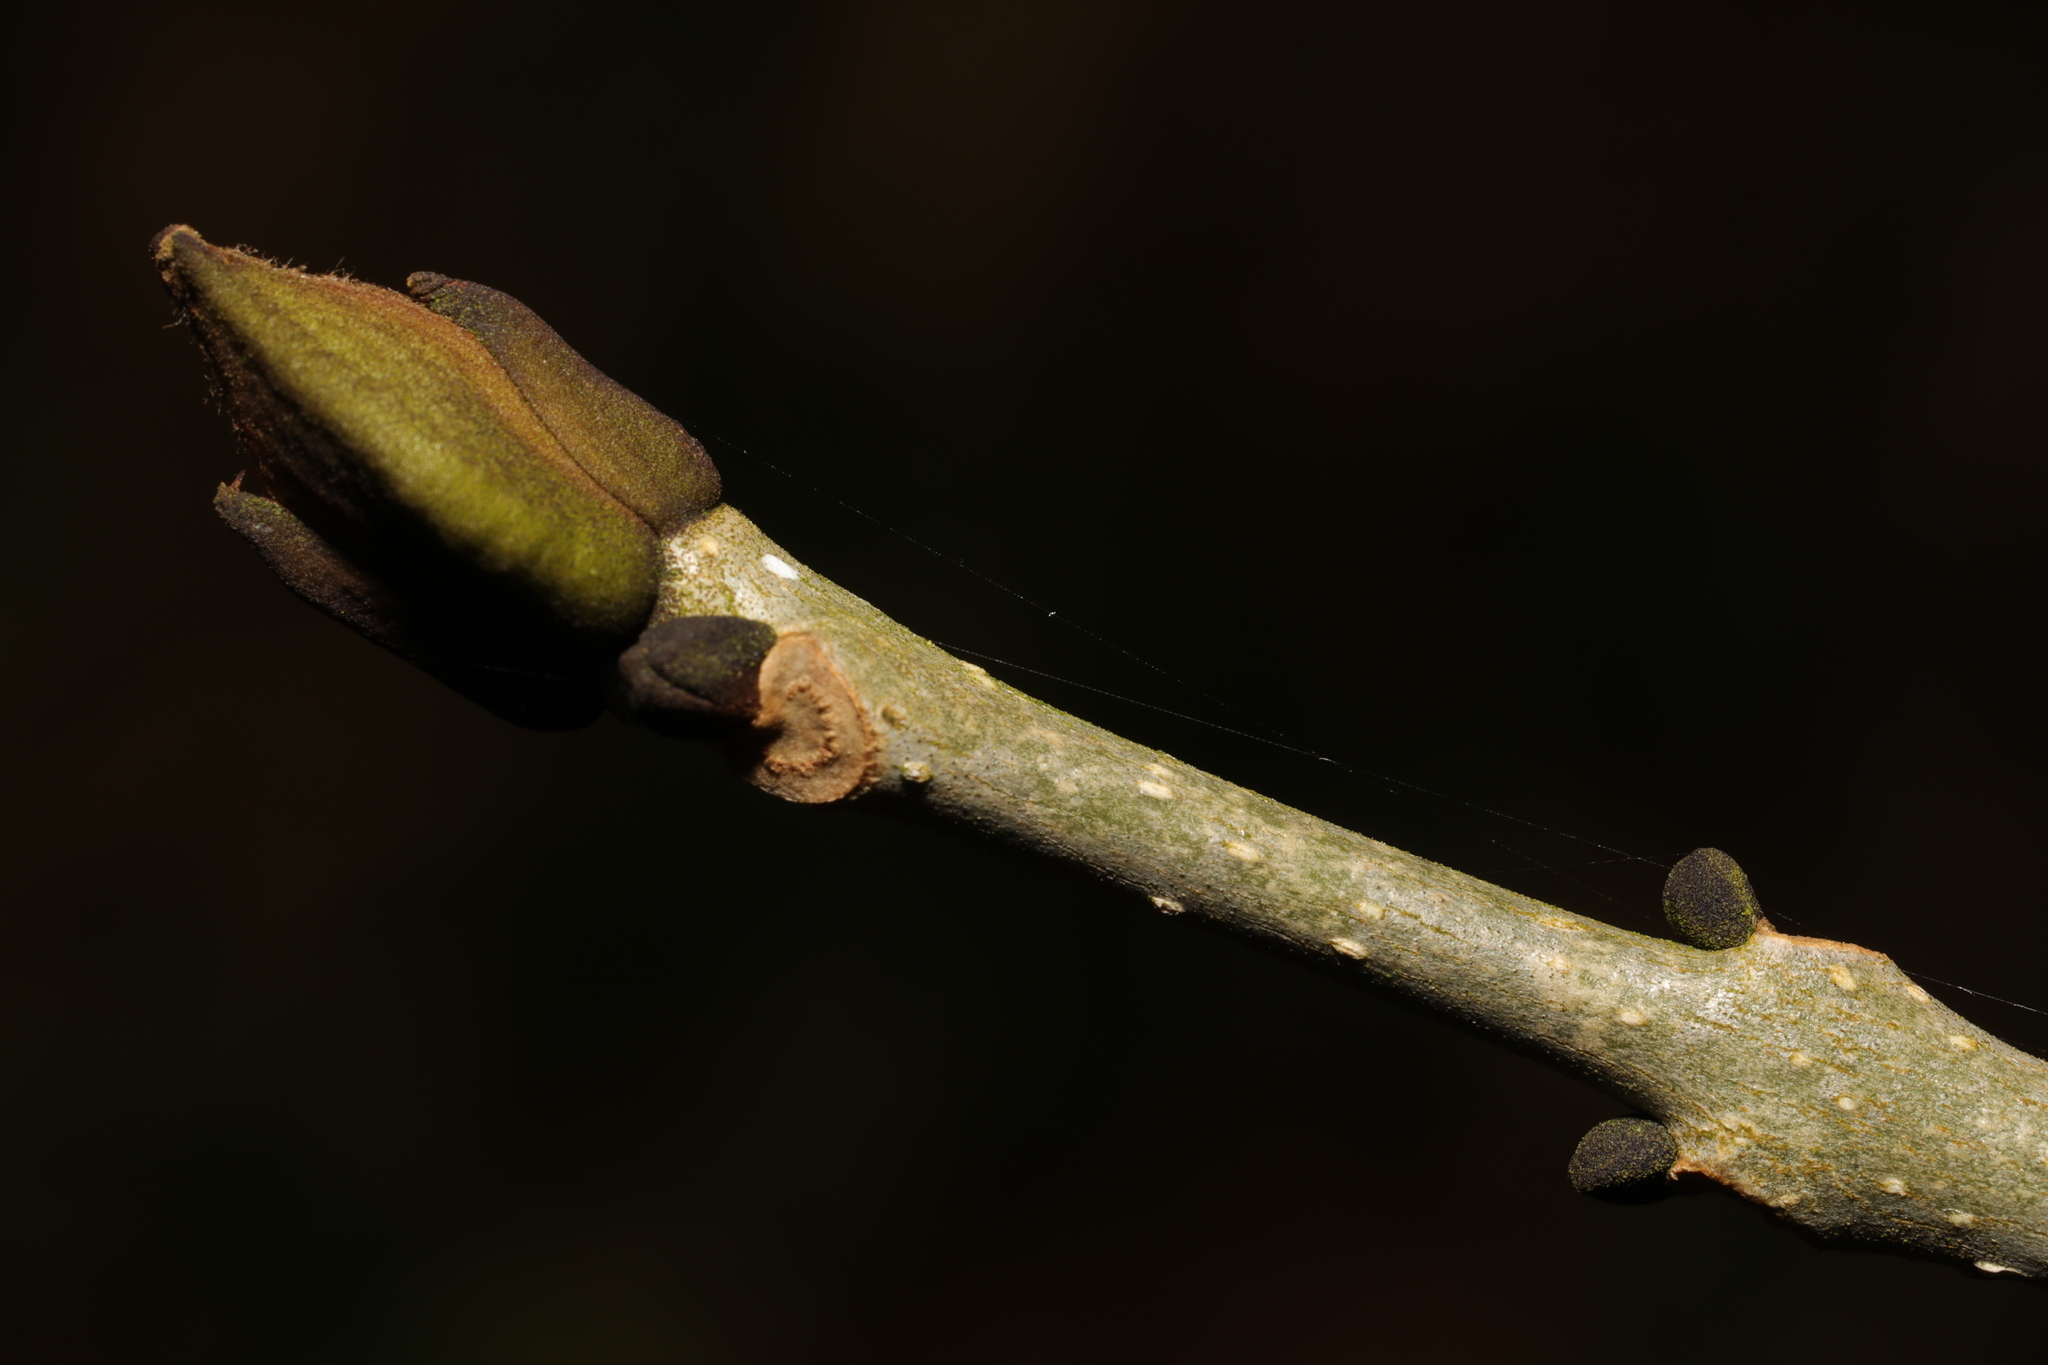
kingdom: Plantae
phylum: Tracheophyta
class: Magnoliopsida
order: Lamiales
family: Oleaceae
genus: Fraxinus
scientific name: Fraxinus excelsior
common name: European ash
